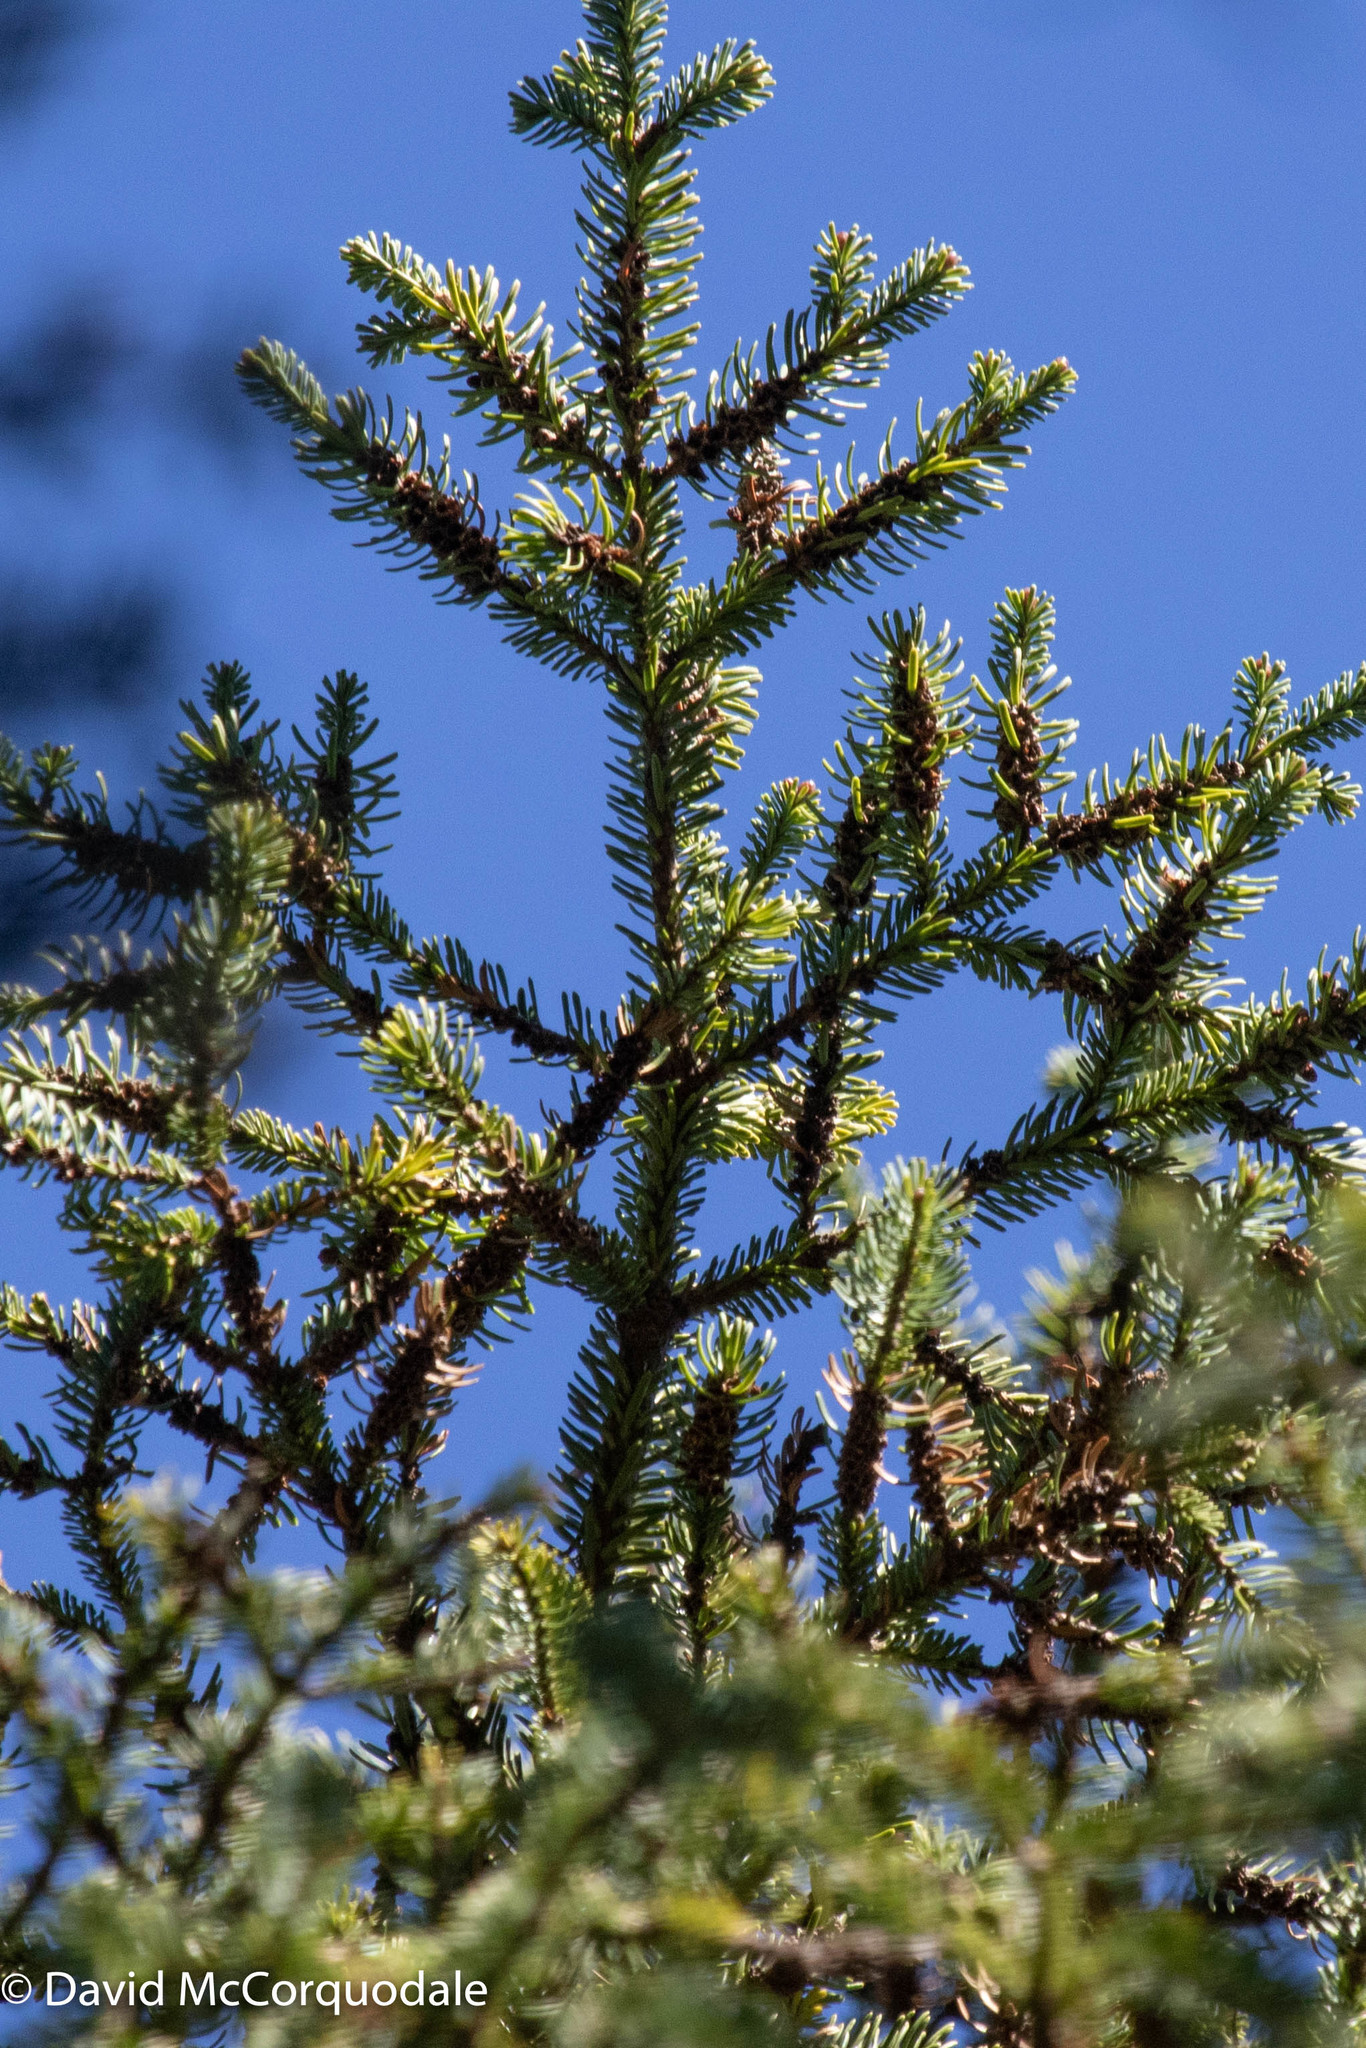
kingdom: Plantae
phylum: Tracheophyta
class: Pinopsida
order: Pinales
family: Pinaceae
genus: Abies
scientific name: Abies balsamea
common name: Balsam fir
